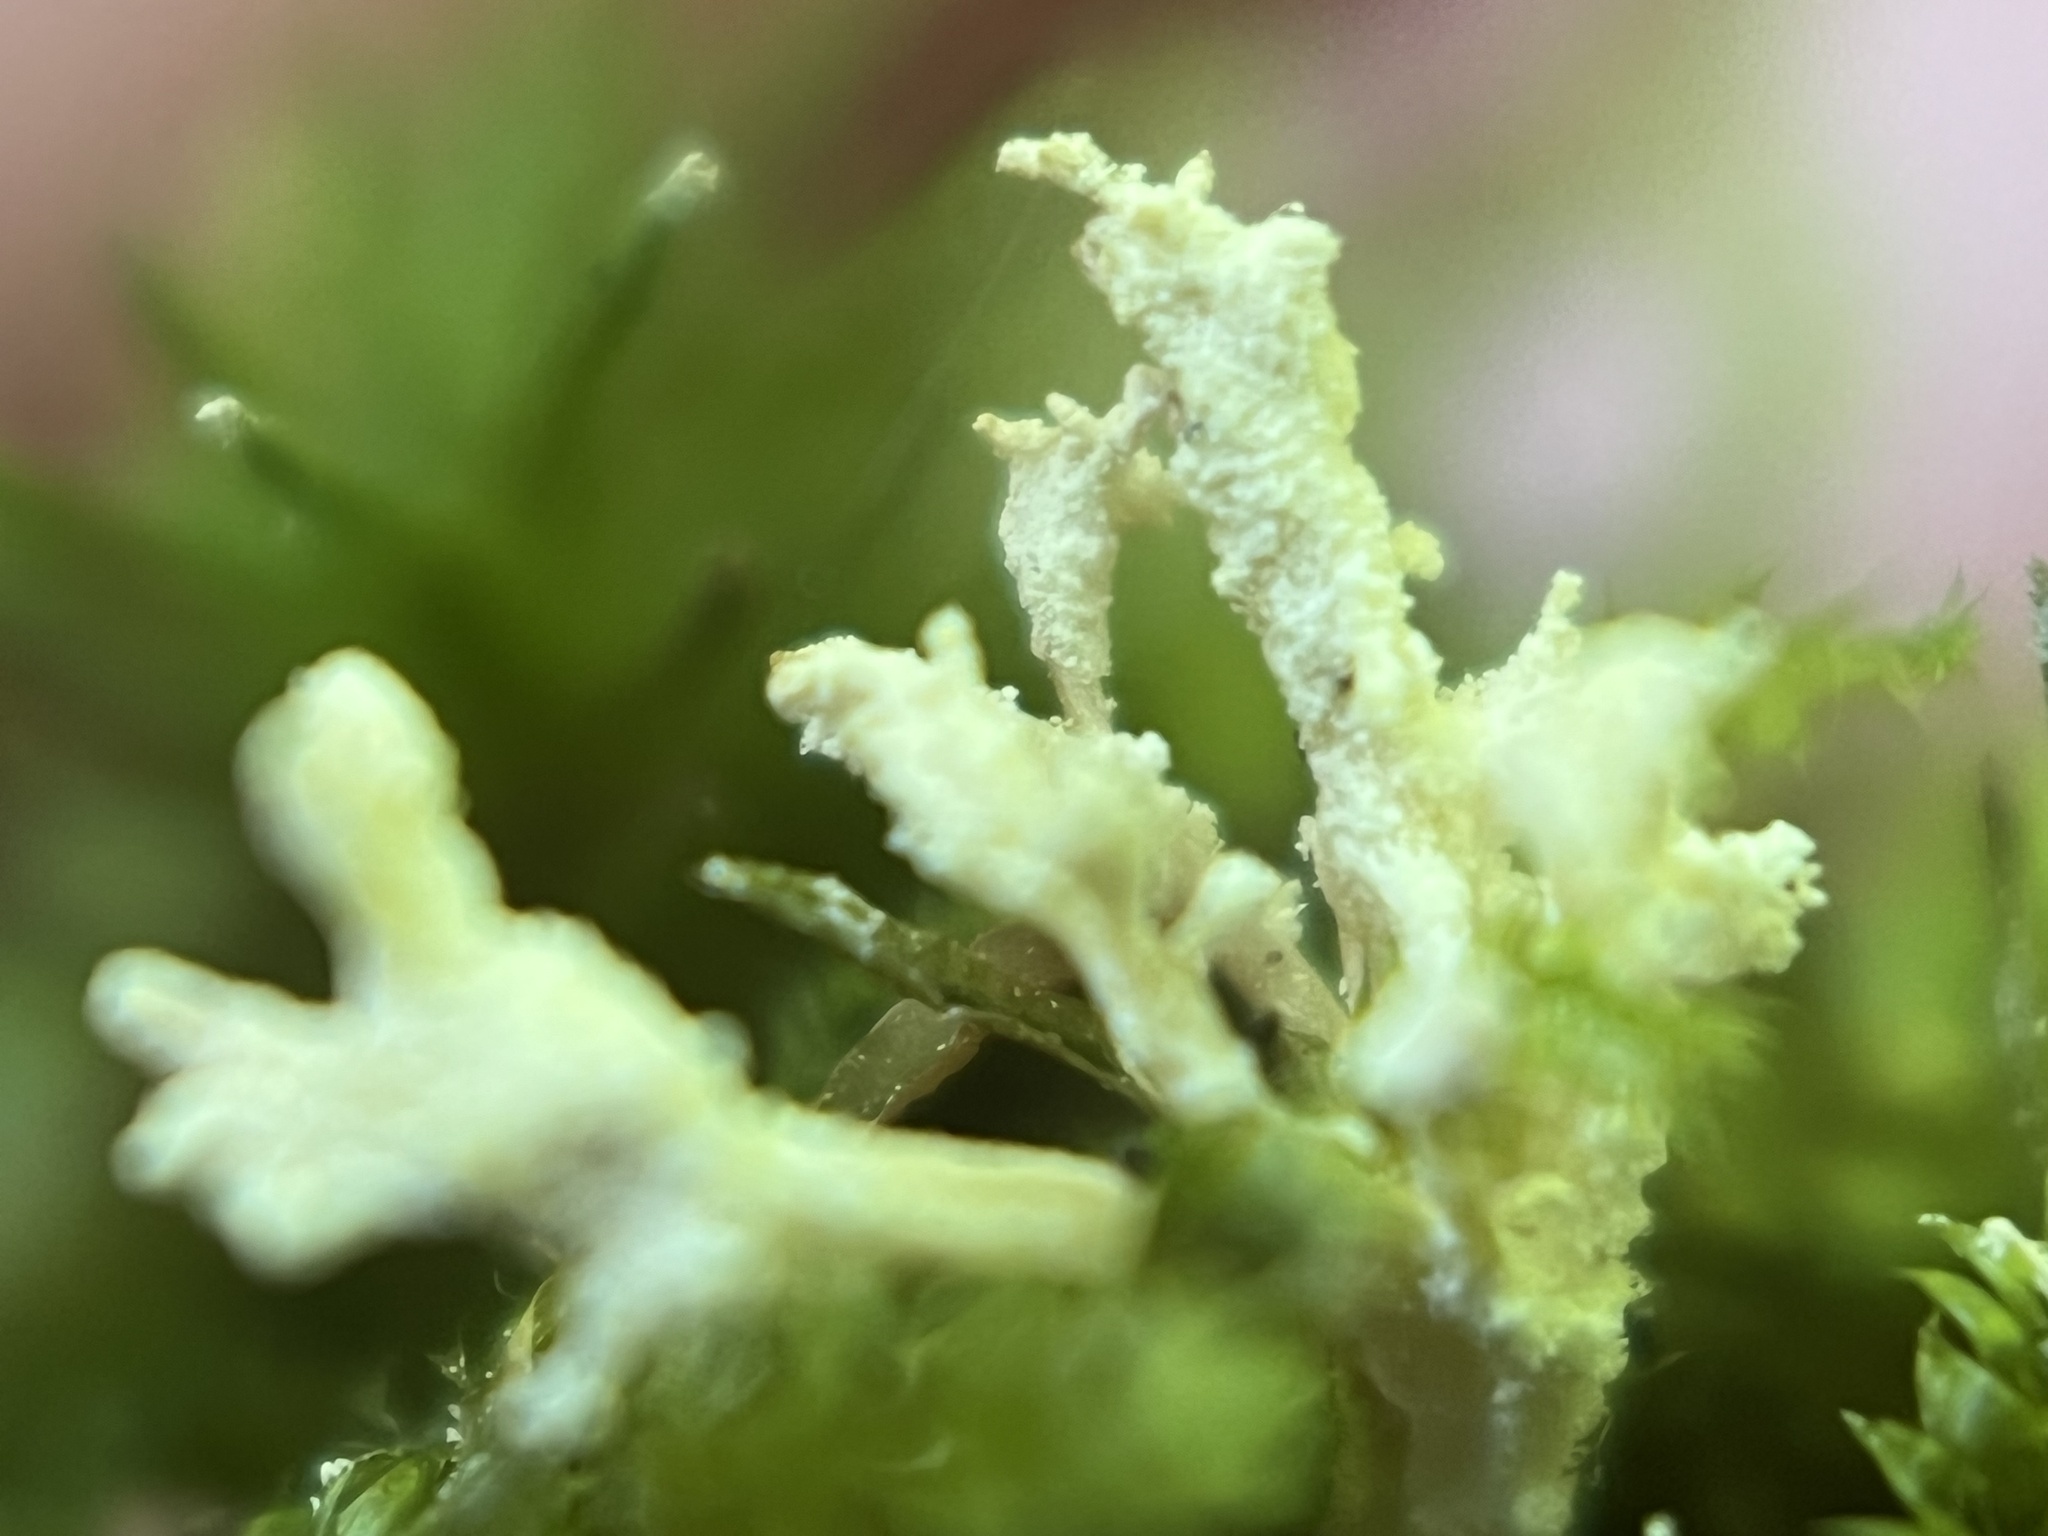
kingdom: Fungi
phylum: Ascomycota
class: Sordariomycetes
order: Hypocreales
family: Cordycipitaceae
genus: Cordyceps
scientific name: Cordyceps tenuipes
